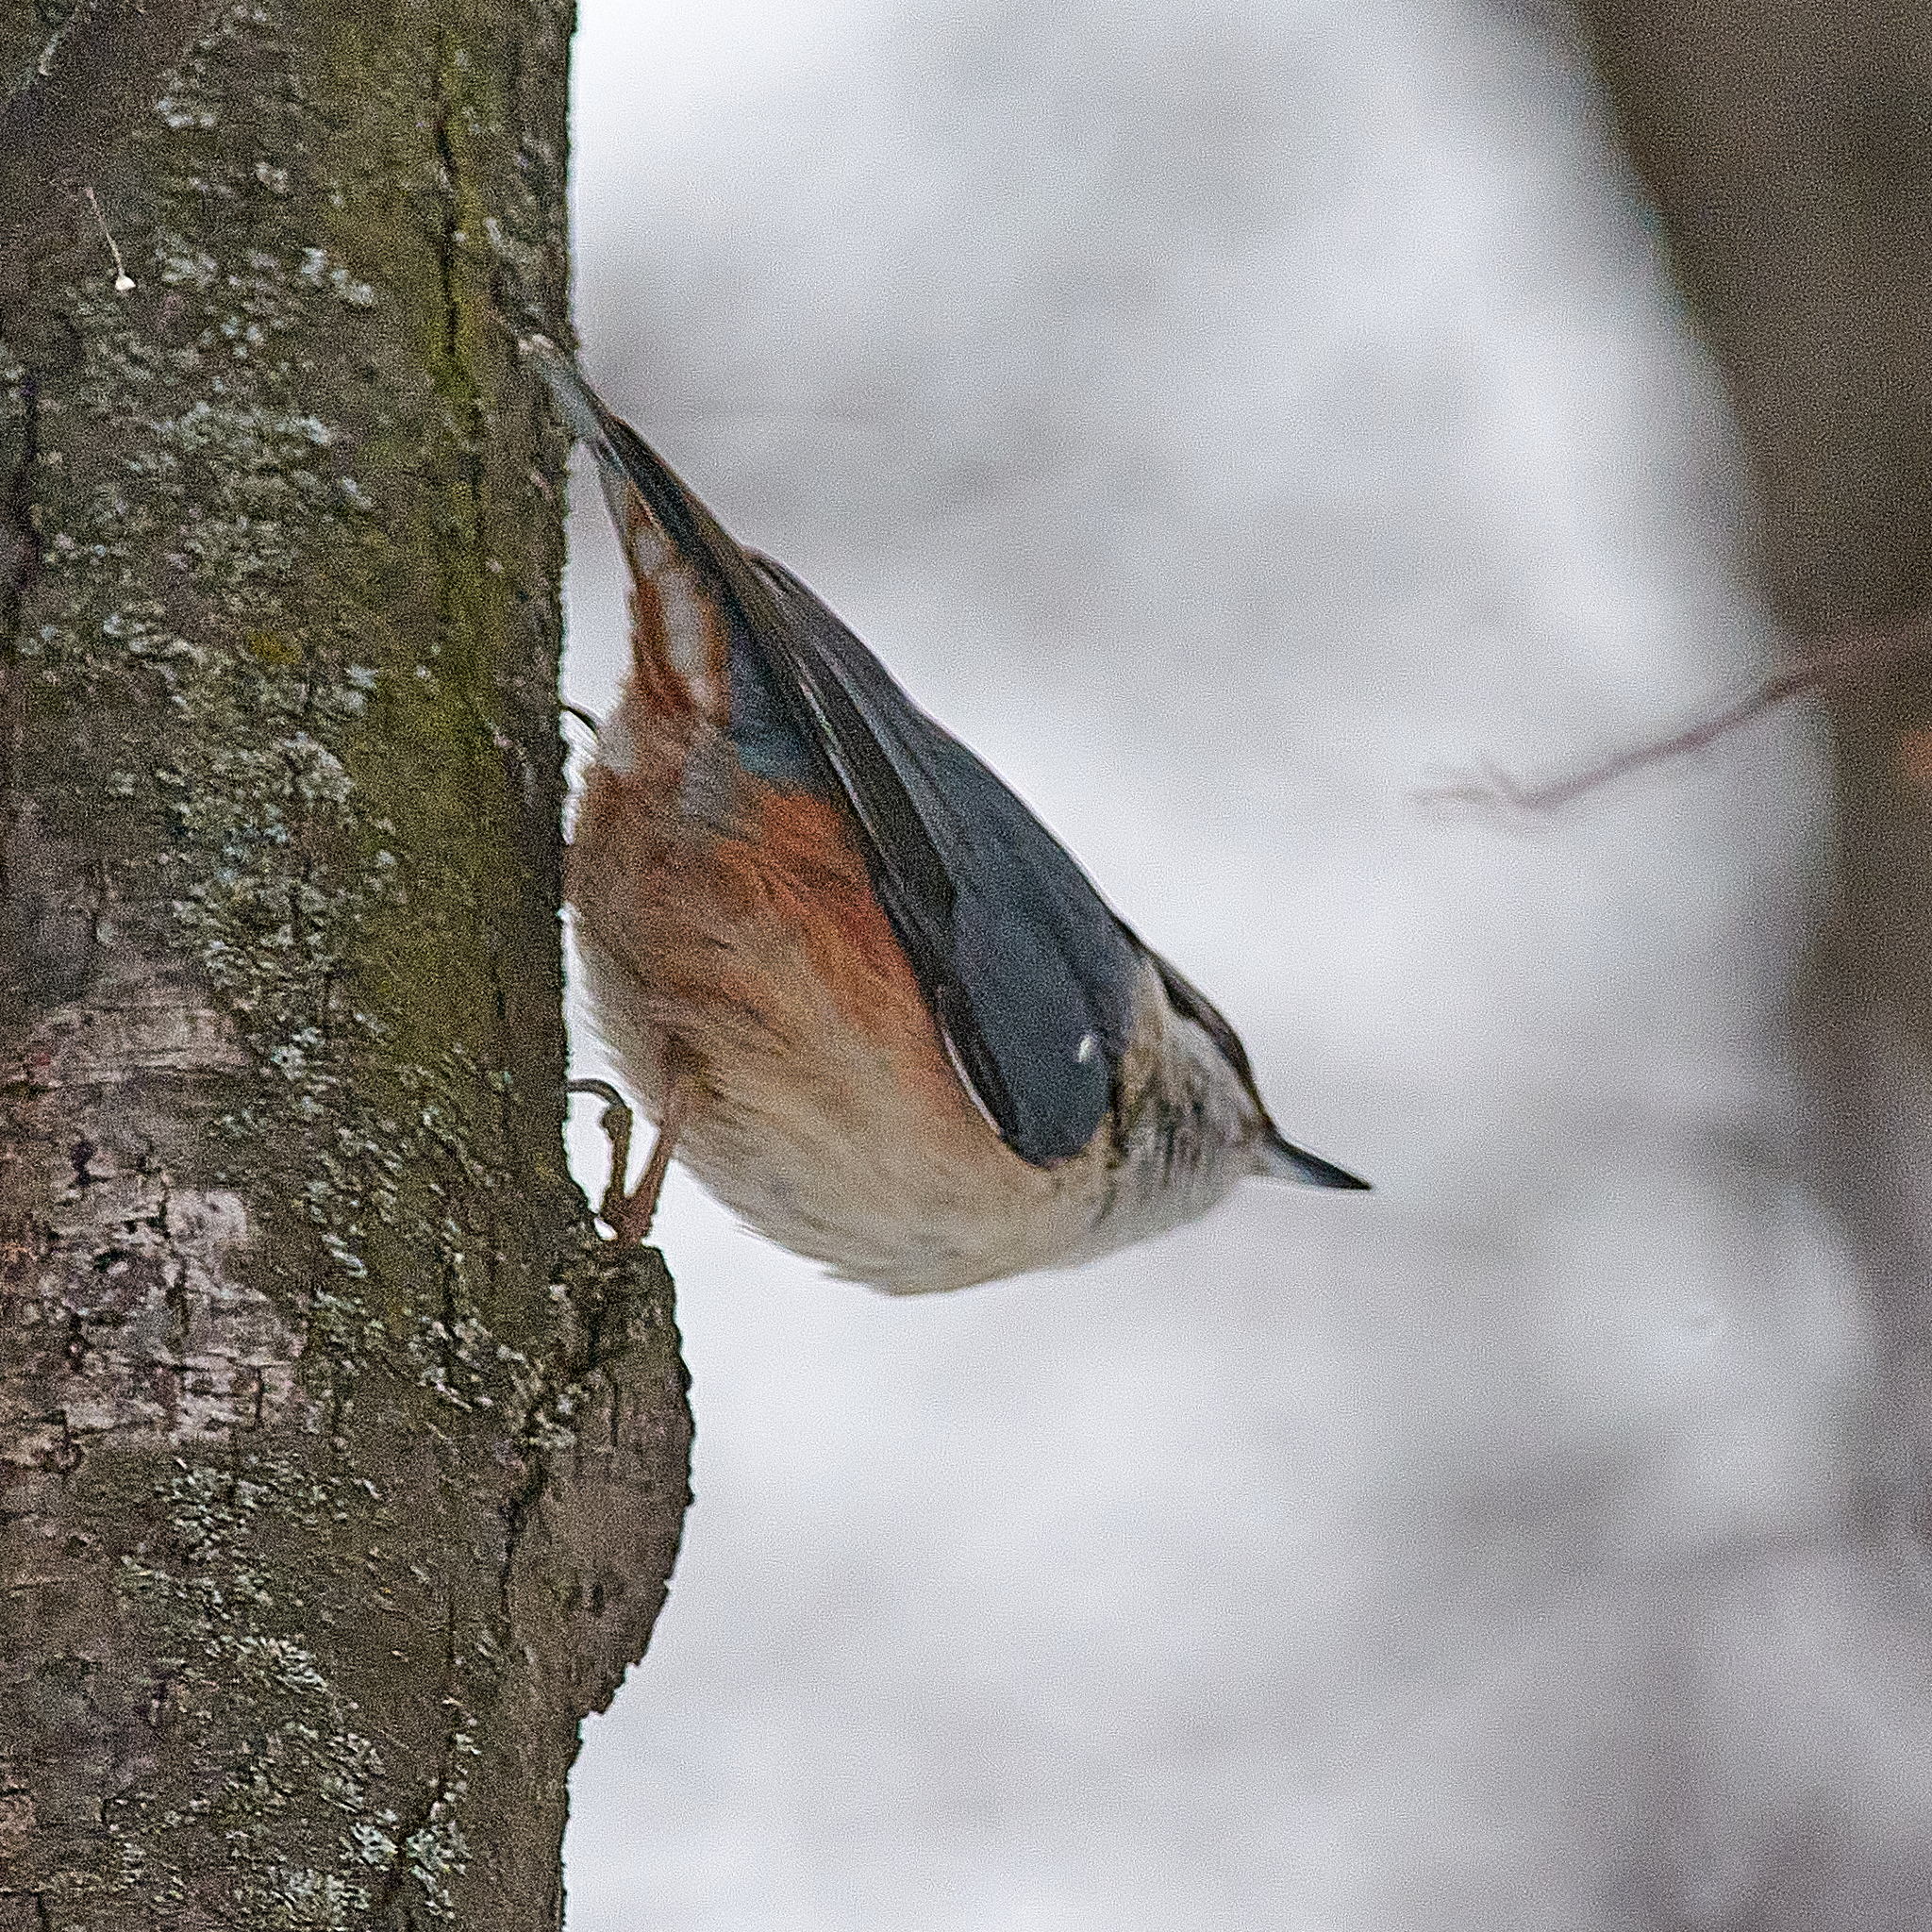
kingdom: Animalia
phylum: Chordata
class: Aves
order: Passeriformes
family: Sittidae
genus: Sitta
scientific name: Sitta europaea
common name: Eurasian nuthatch
